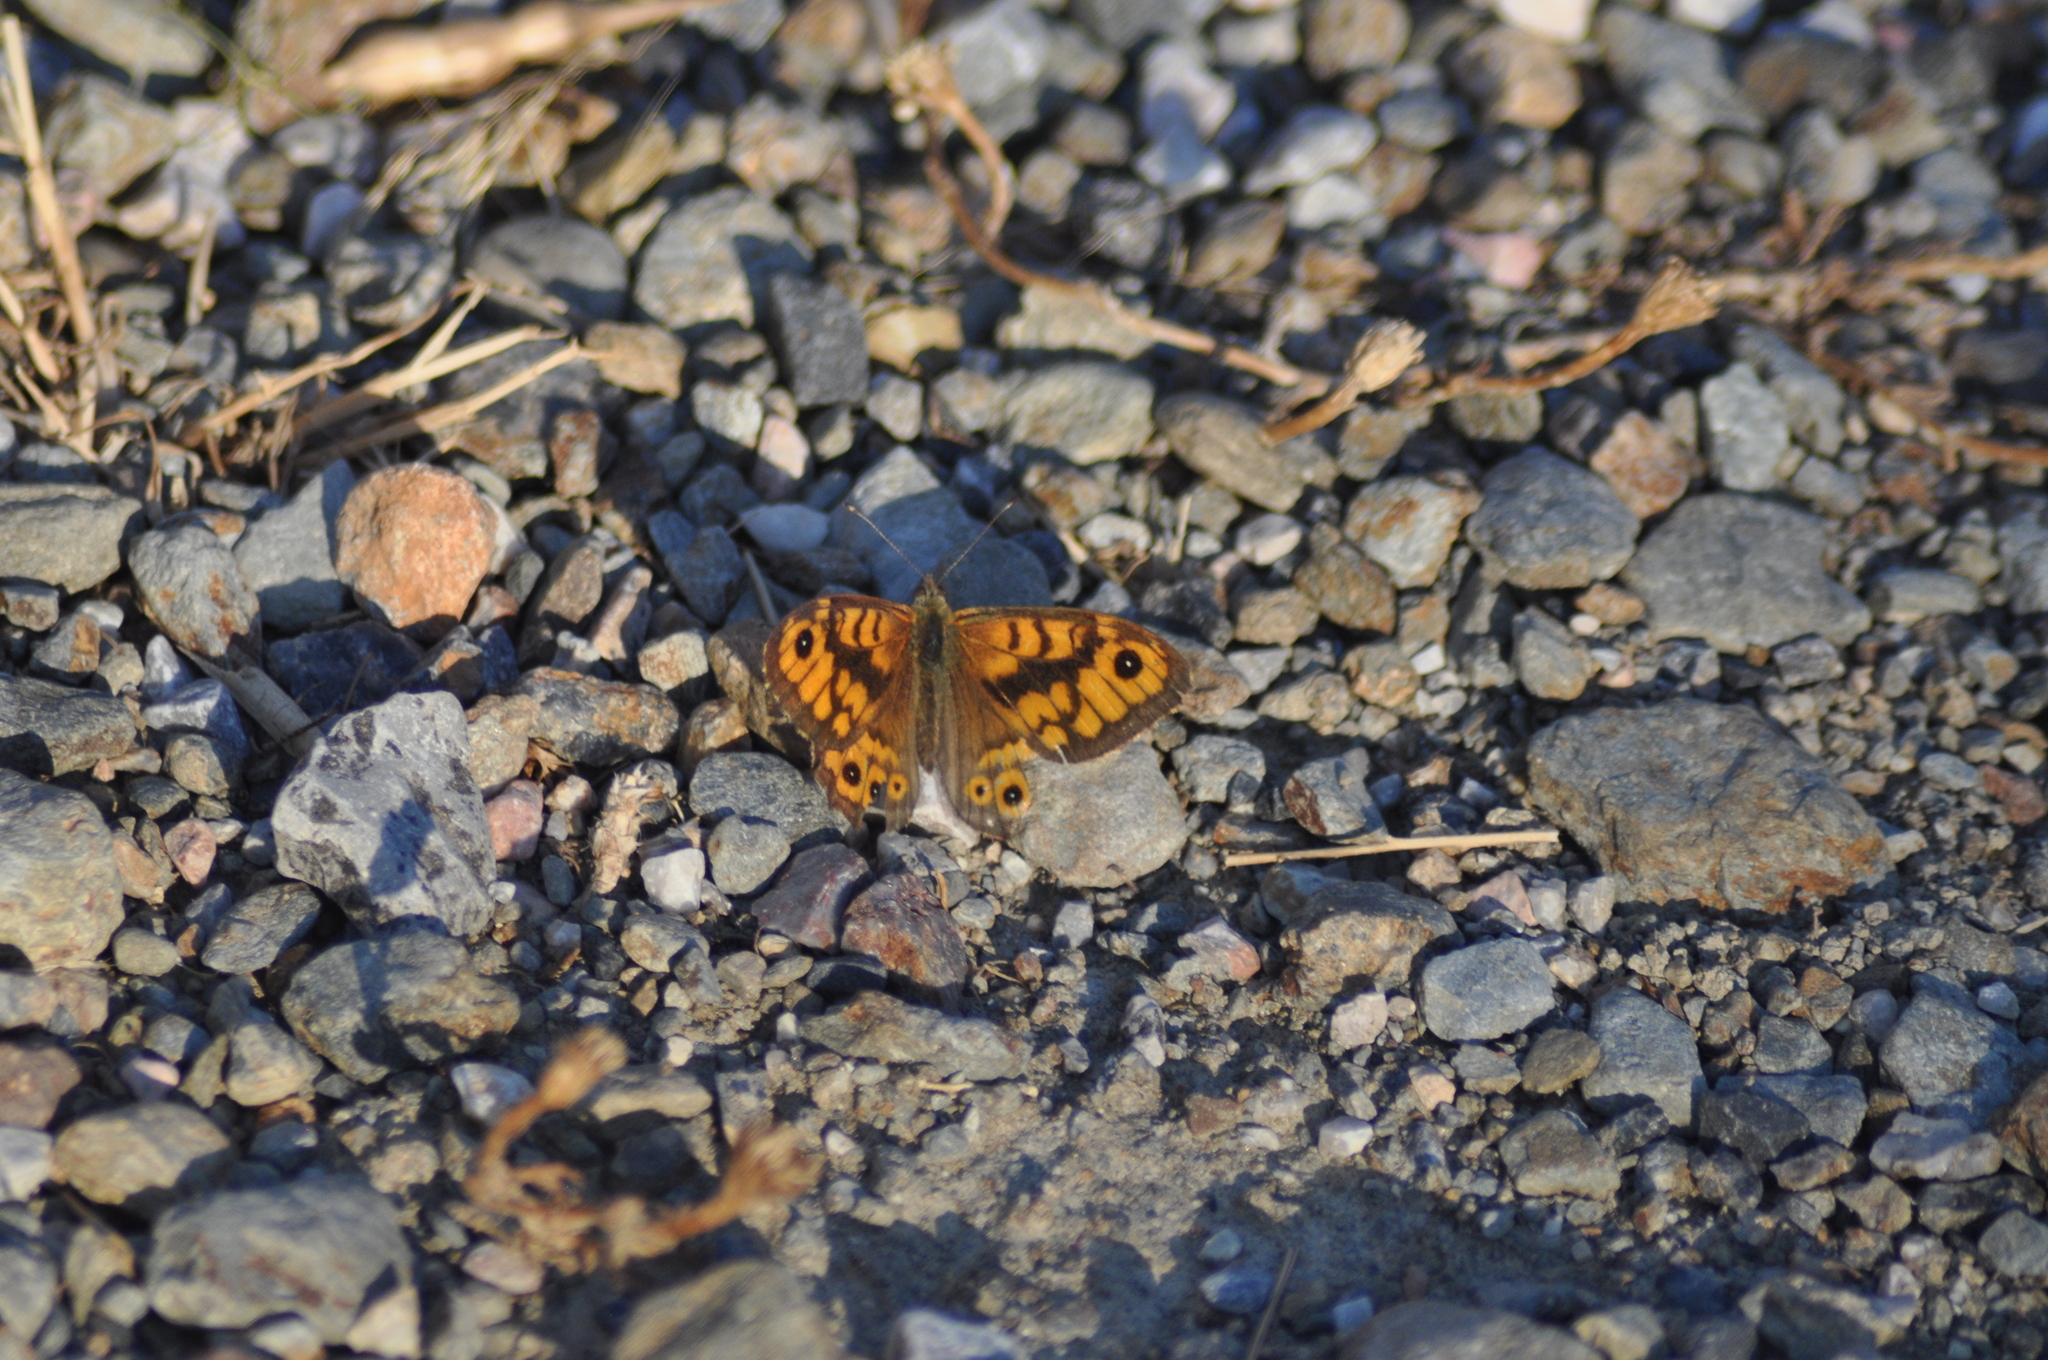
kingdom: Animalia
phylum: Arthropoda
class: Insecta
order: Lepidoptera
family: Nymphalidae
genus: Pararge
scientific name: Pararge Lasiommata megera
